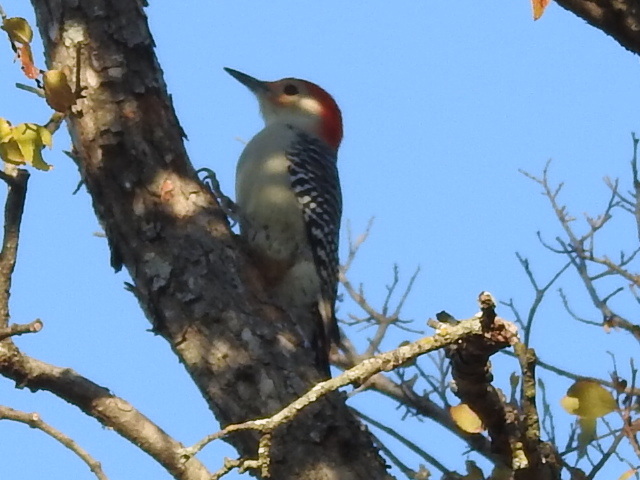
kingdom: Animalia
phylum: Chordata
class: Aves
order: Piciformes
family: Picidae
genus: Melanerpes
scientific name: Melanerpes carolinus
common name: Red-bellied woodpecker
